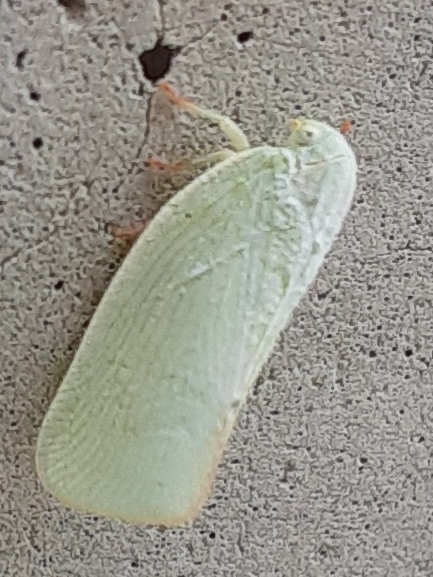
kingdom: Animalia
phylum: Arthropoda
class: Insecta
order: Hemiptera
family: Flatidae
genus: Flatormenis
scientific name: Flatormenis proxima
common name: Northern flatid planthopper
